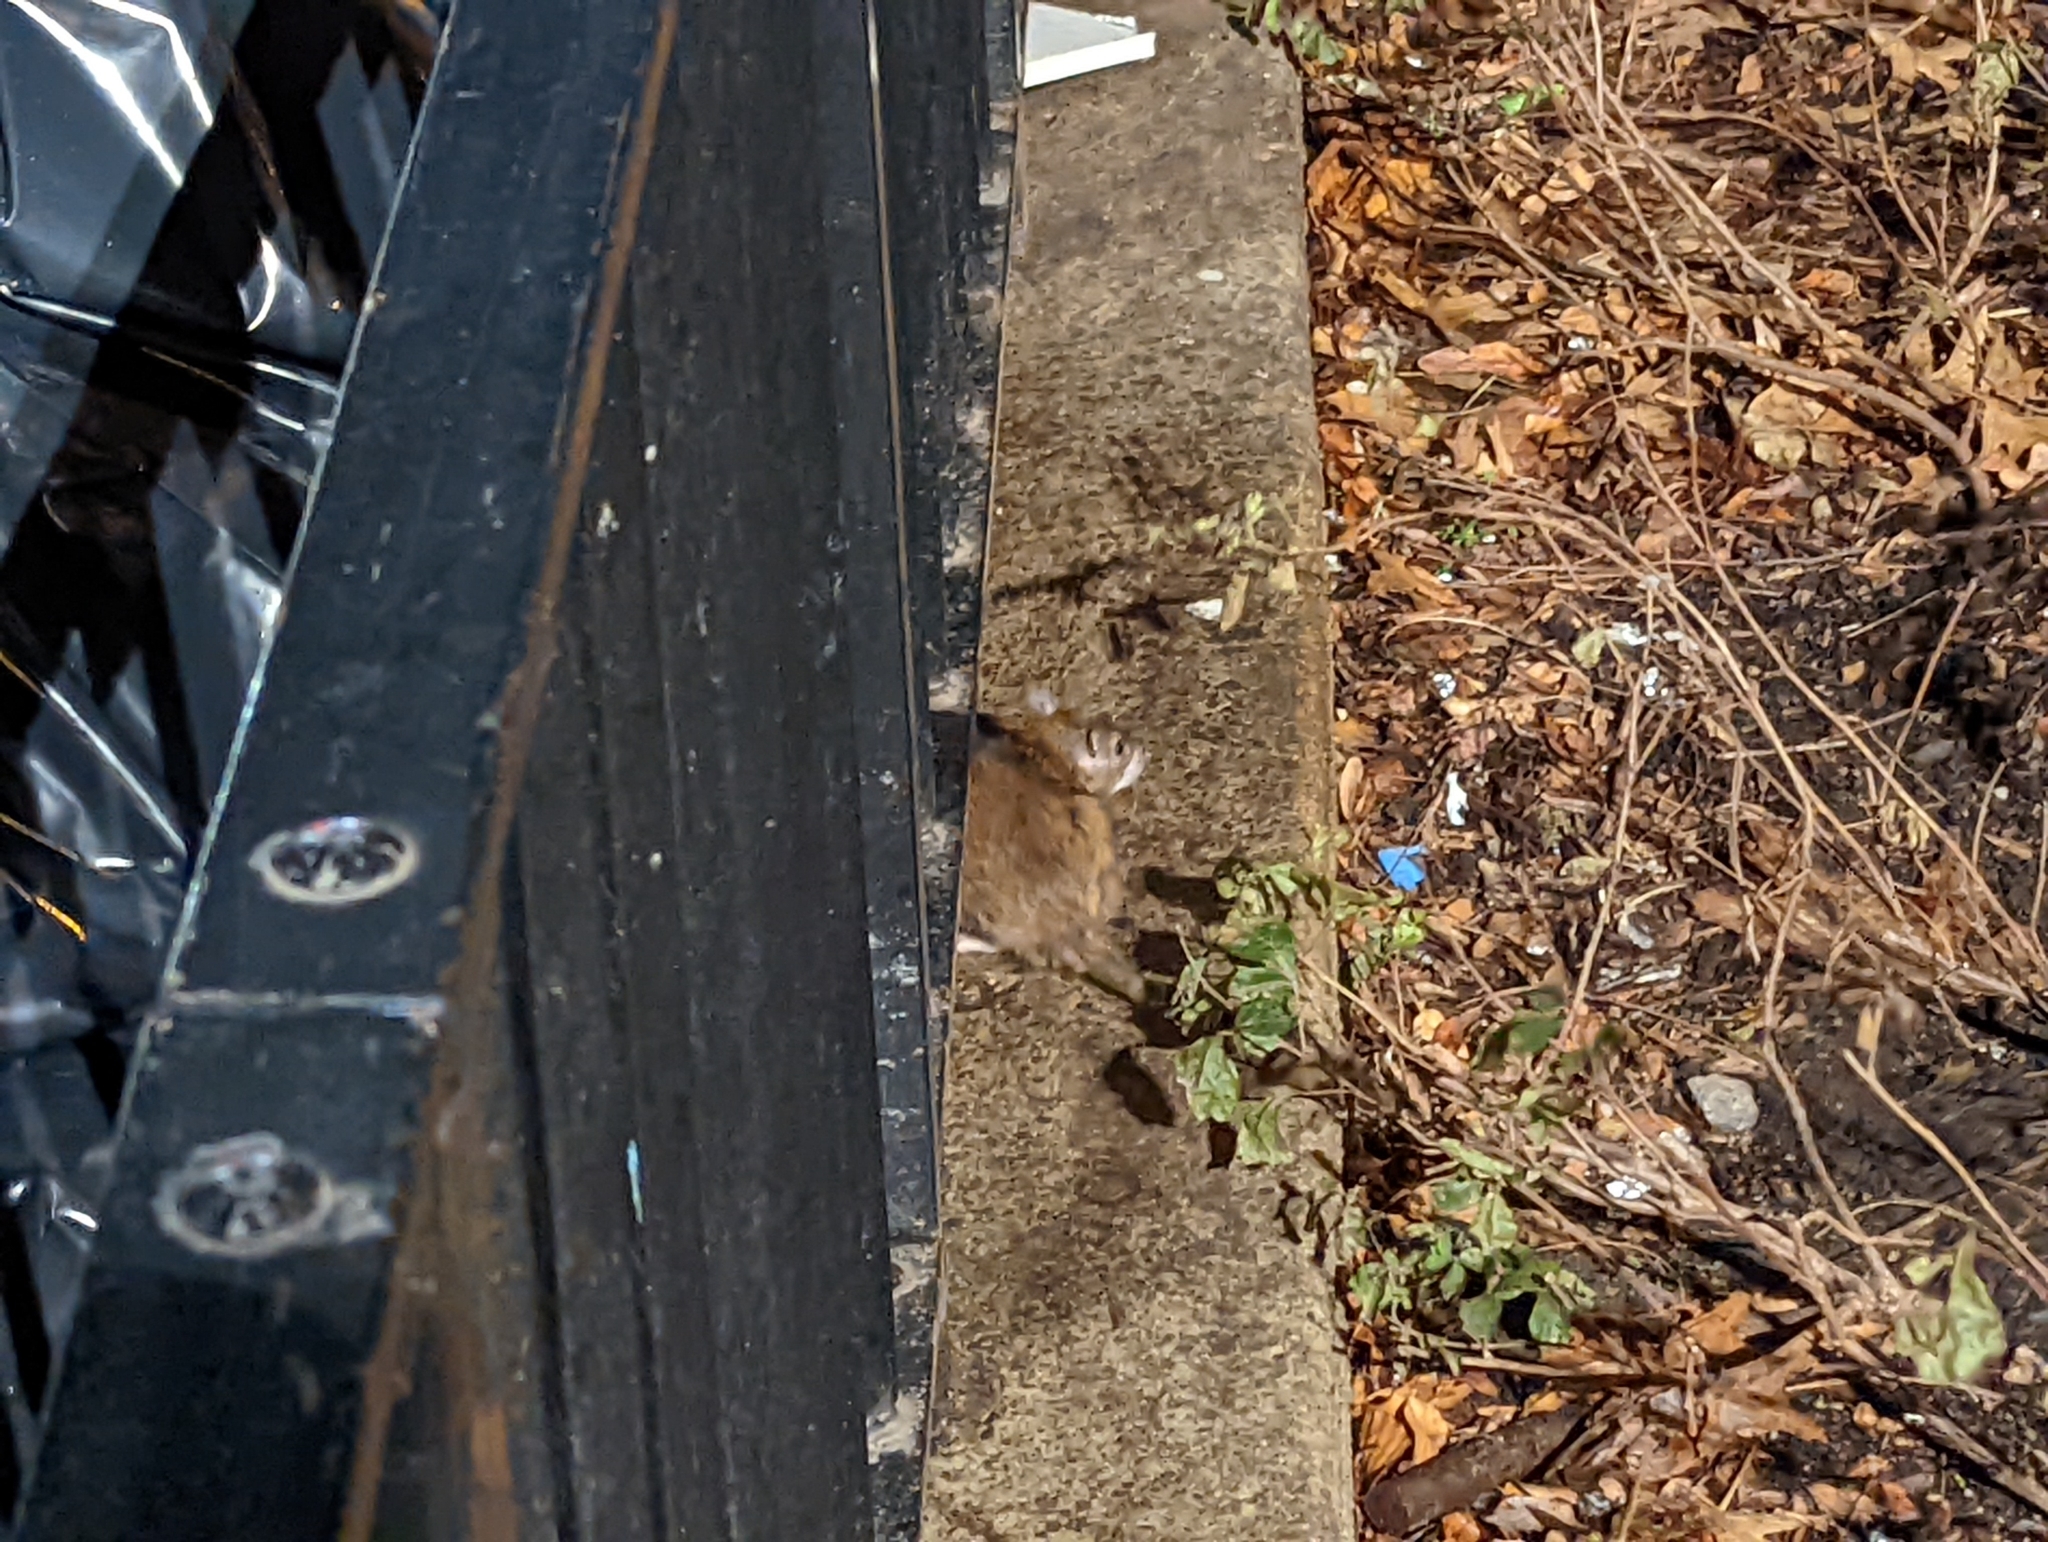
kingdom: Animalia
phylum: Chordata
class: Mammalia
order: Rodentia
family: Muridae
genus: Rattus
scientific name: Rattus norvegicus
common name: Brown rat
